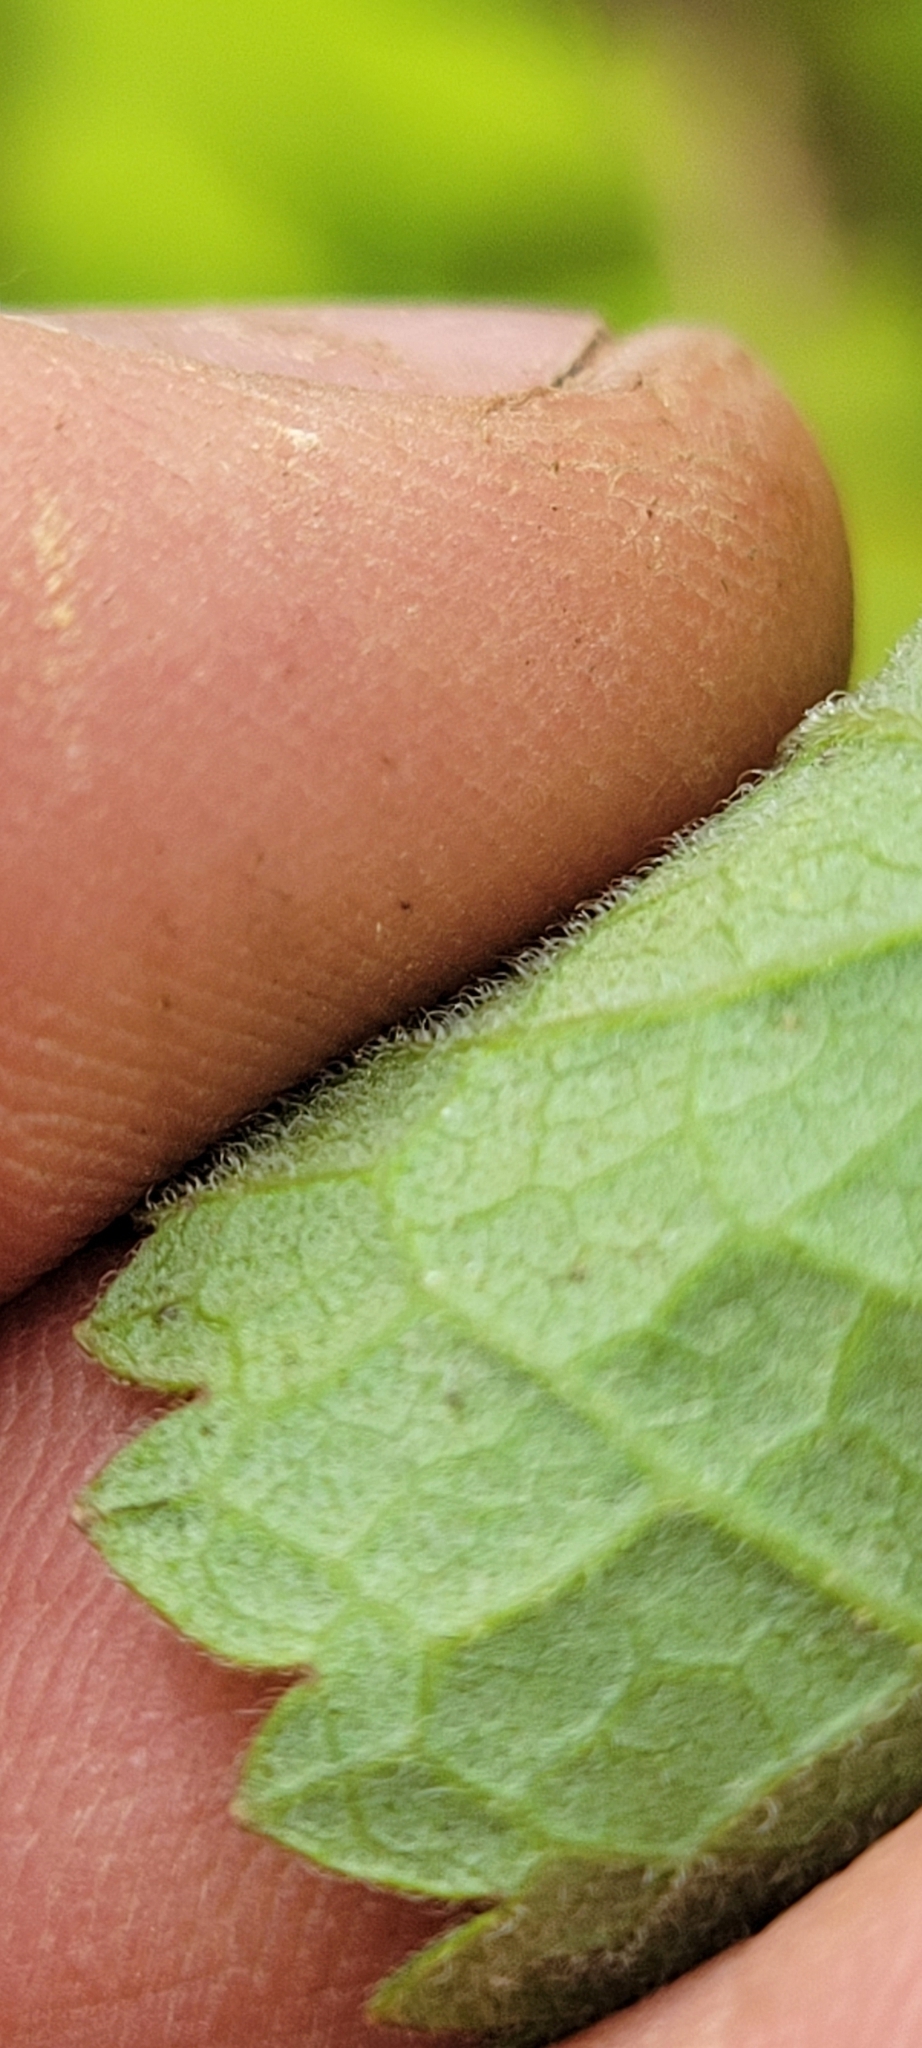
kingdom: Plantae
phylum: Tracheophyta
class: Magnoliopsida
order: Asterales
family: Asteraceae
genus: Eupatorium
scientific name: Eupatorium rotundifolium
